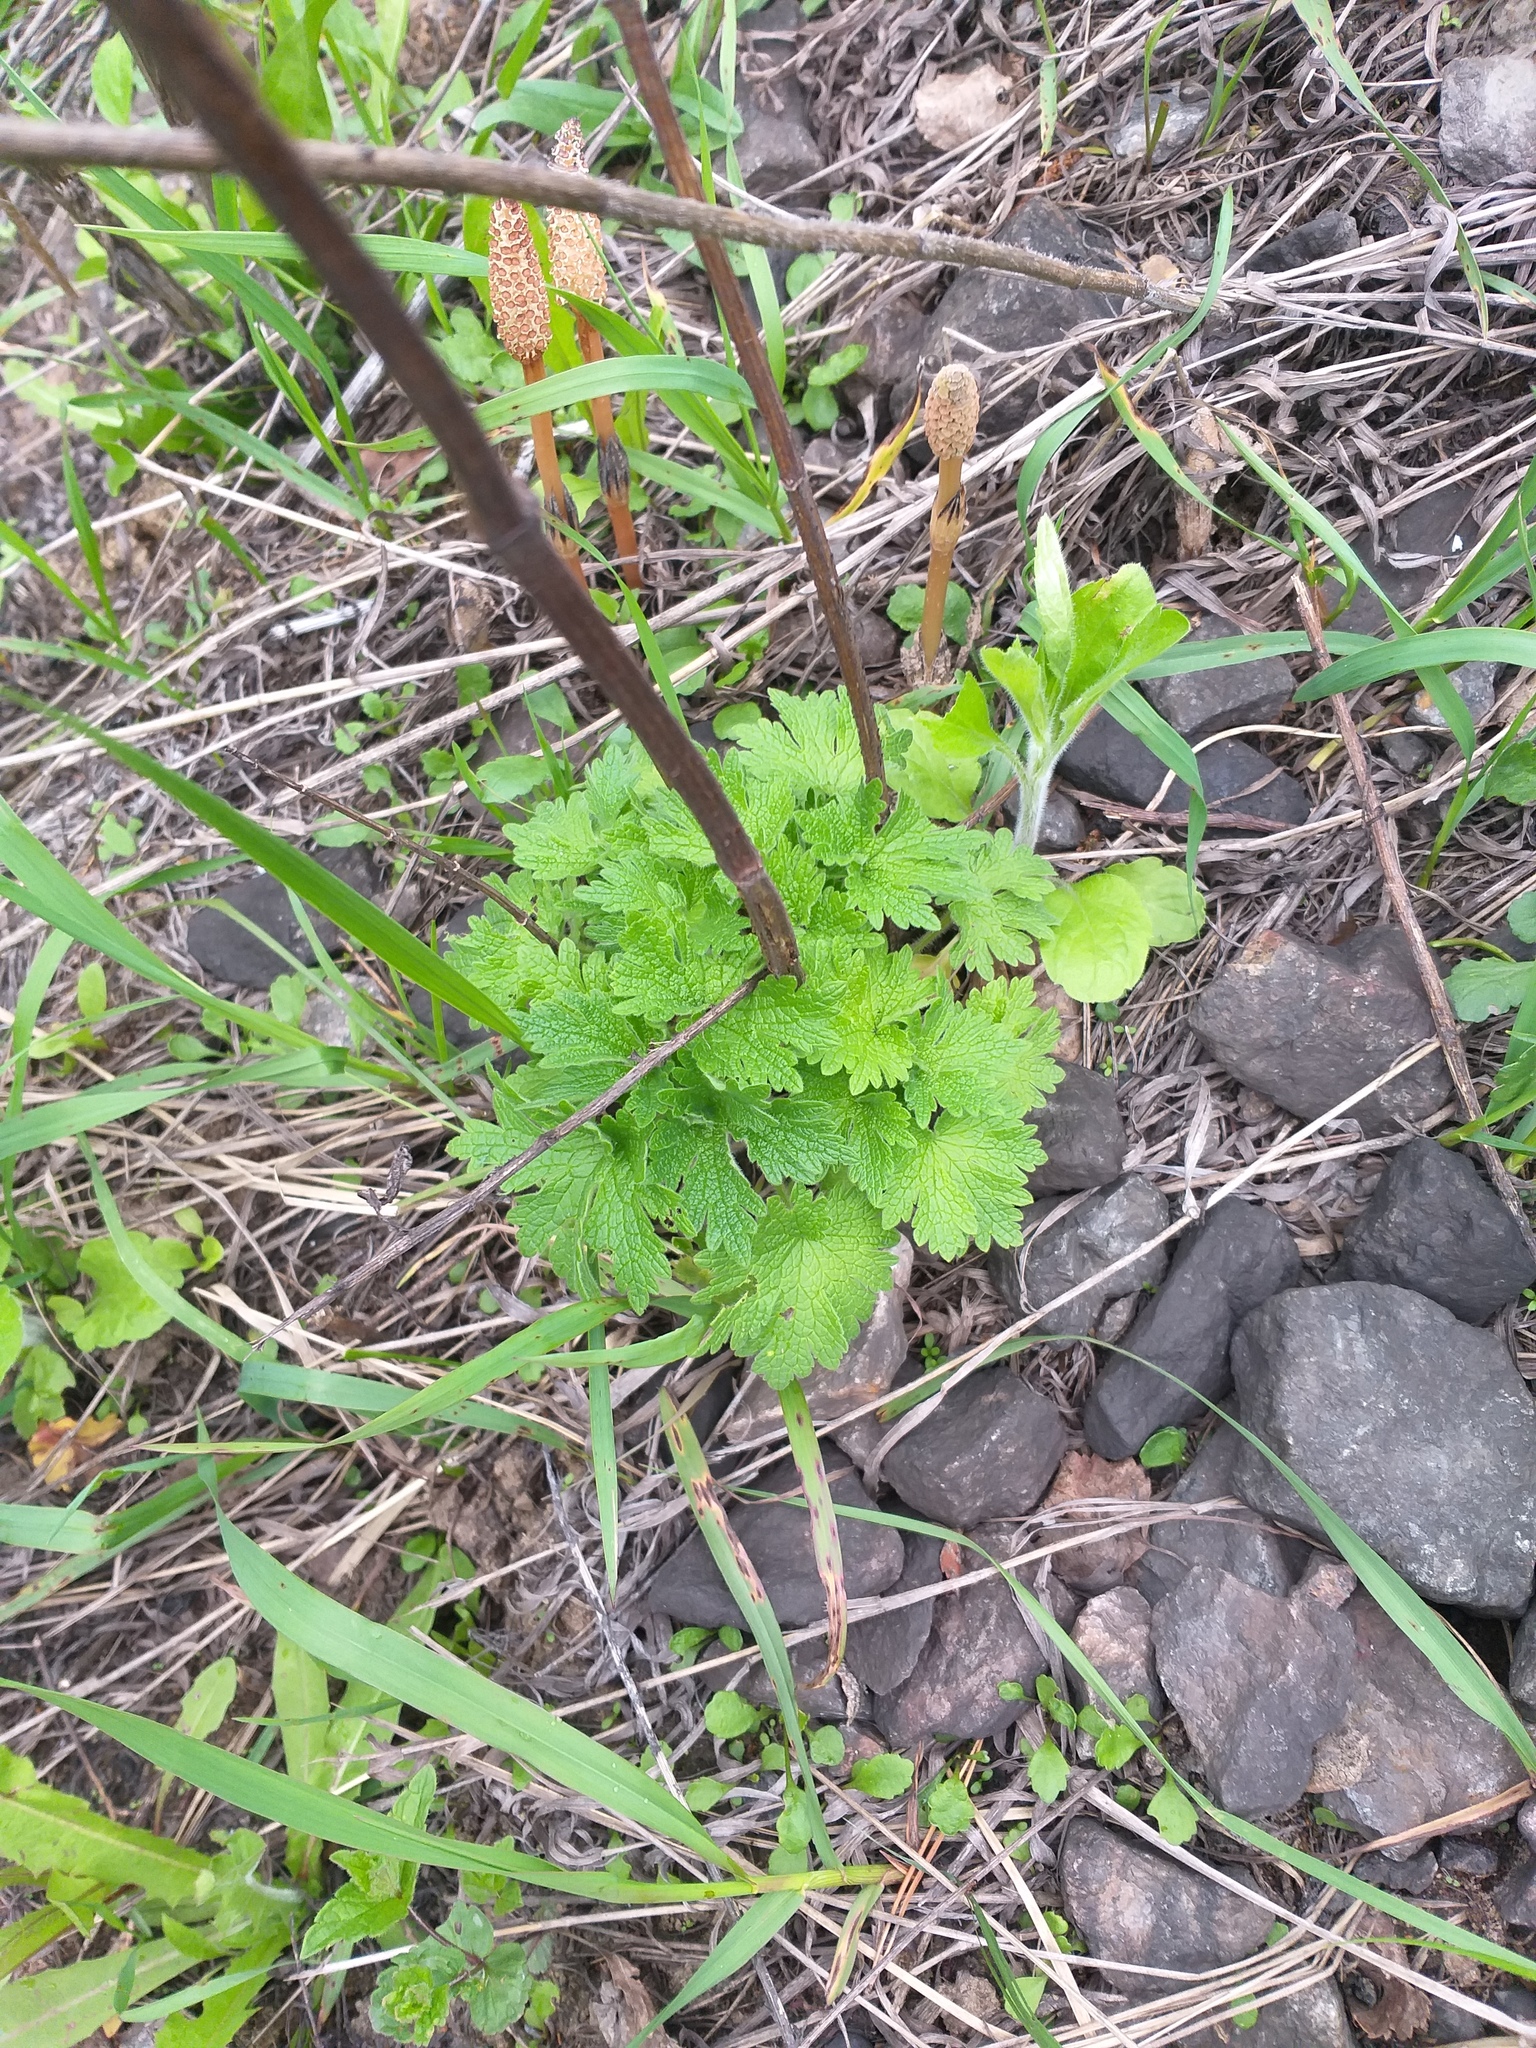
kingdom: Plantae
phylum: Tracheophyta
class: Magnoliopsida
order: Lamiales
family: Lamiaceae
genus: Leonurus
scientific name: Leonurus quinquelobatus
